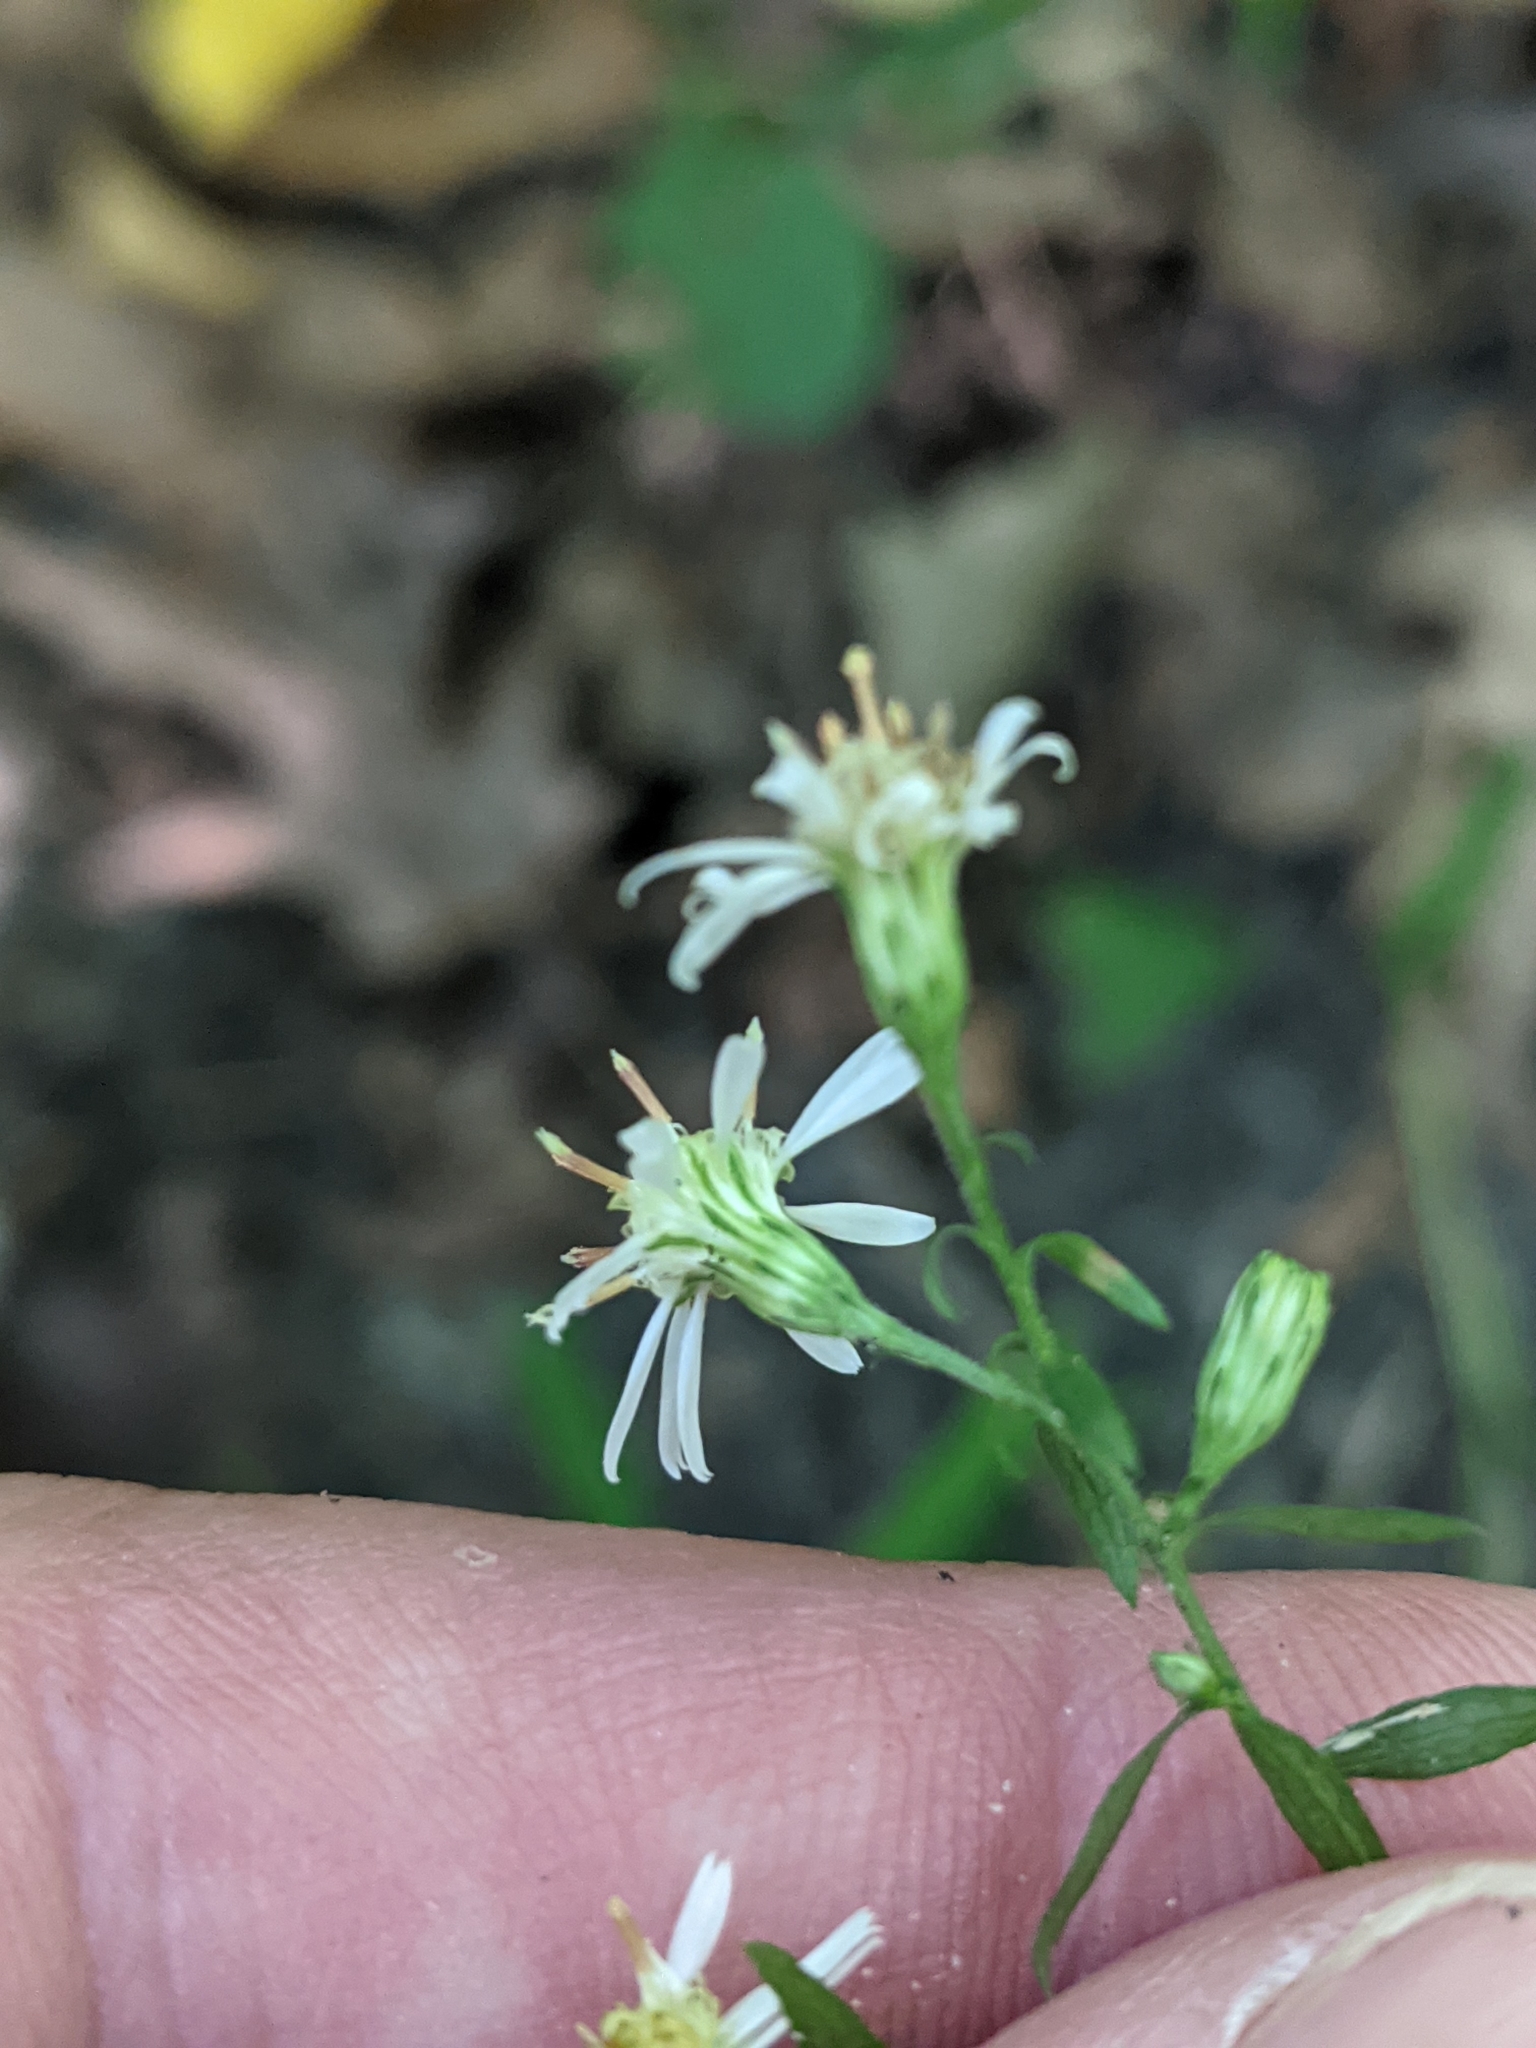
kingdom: Plantae
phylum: Tracheophyta
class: Magnoliopsida
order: Asterales
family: Asteraceae
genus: Symphyotrichum
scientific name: Symphyotrichum lateriflorum
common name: Calico aster
